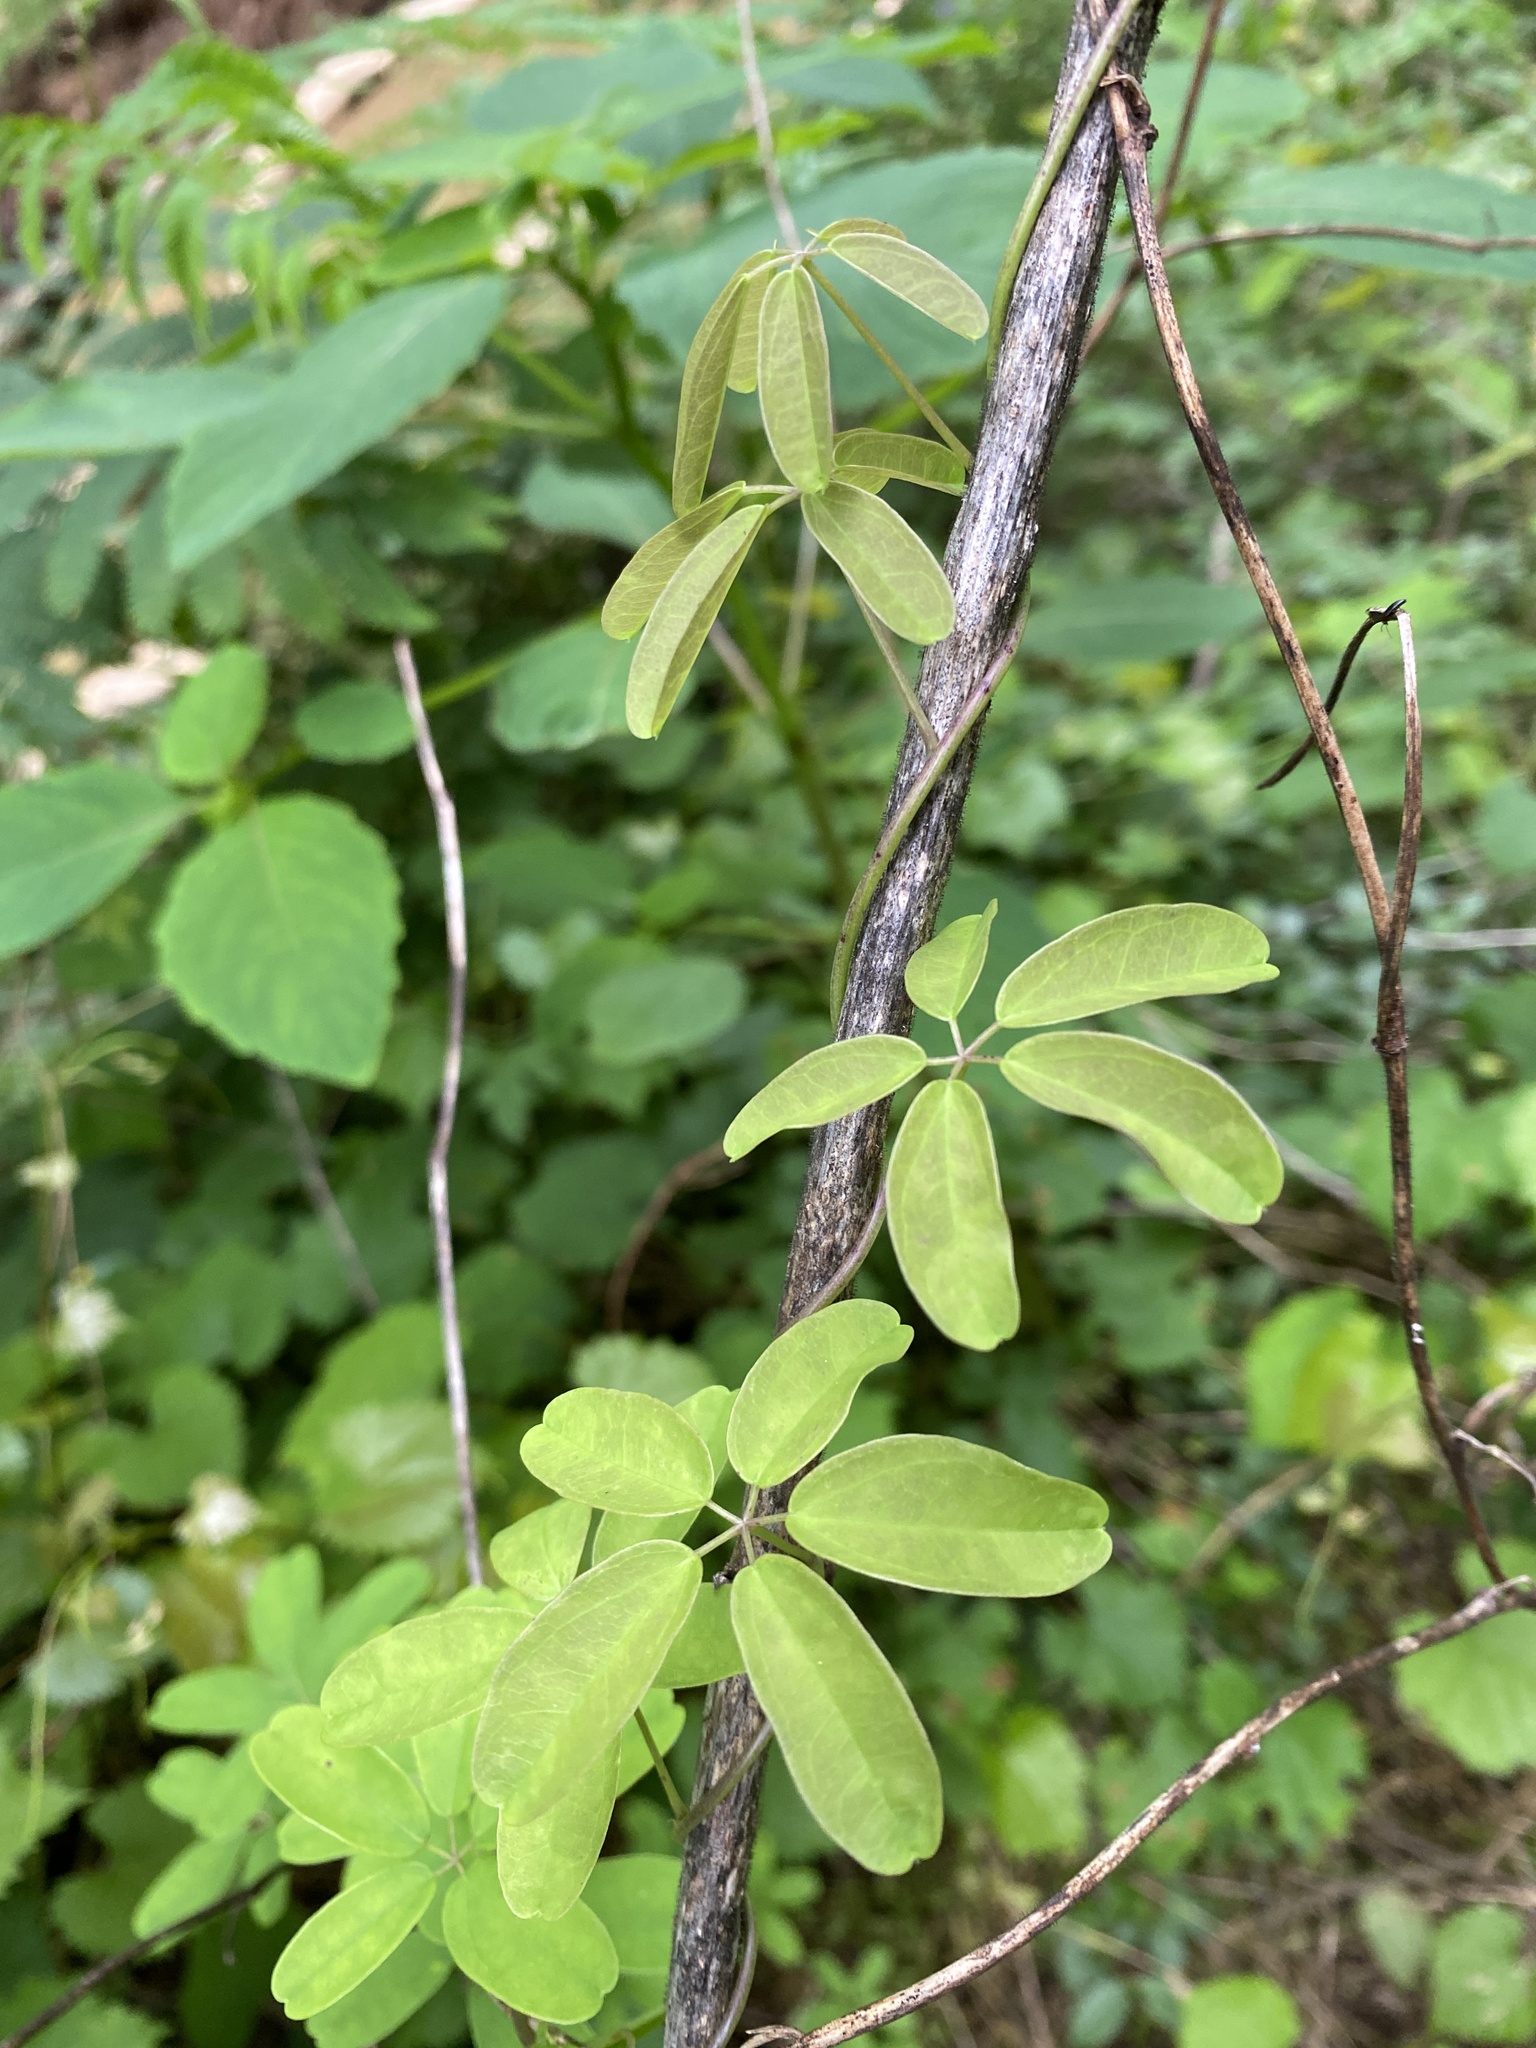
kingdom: Plantae
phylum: Tracheophyta
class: Magnoliopsida
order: Ranunculales
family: Lardizabalaceae
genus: Akebia
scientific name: Akebia quinata
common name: Five-leaf akebia
